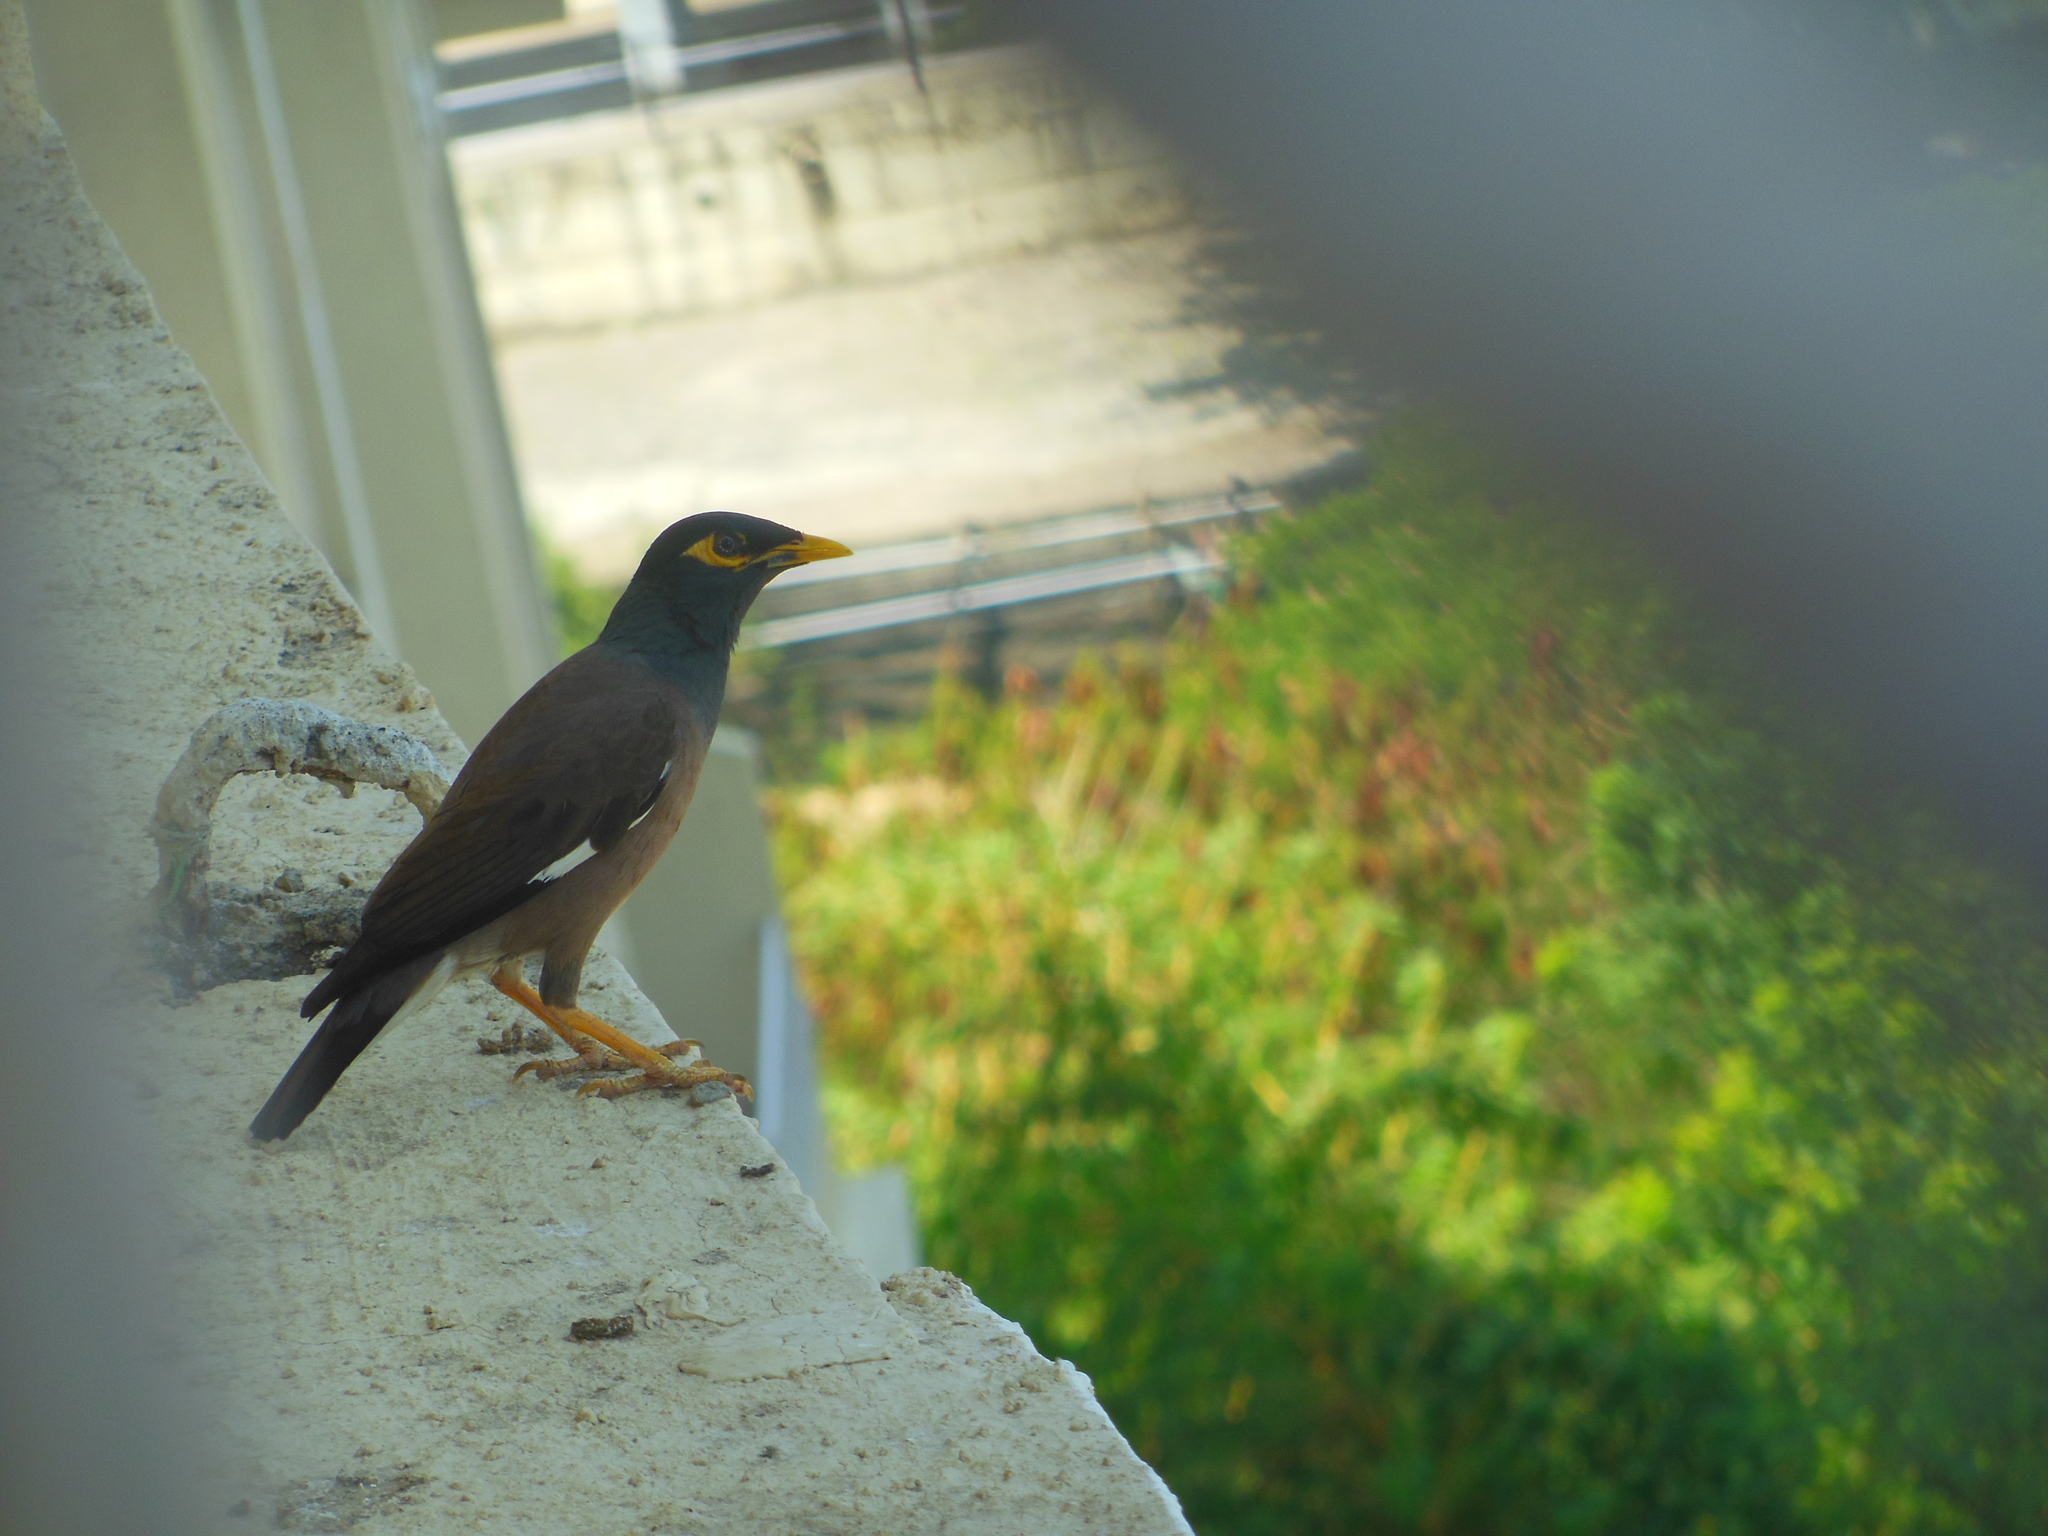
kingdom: Animalia
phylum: Chordata
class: Aves
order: Passeriformes
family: Sturnidae
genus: Acridotheres
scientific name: Acridotheres tristis
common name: Common myna
